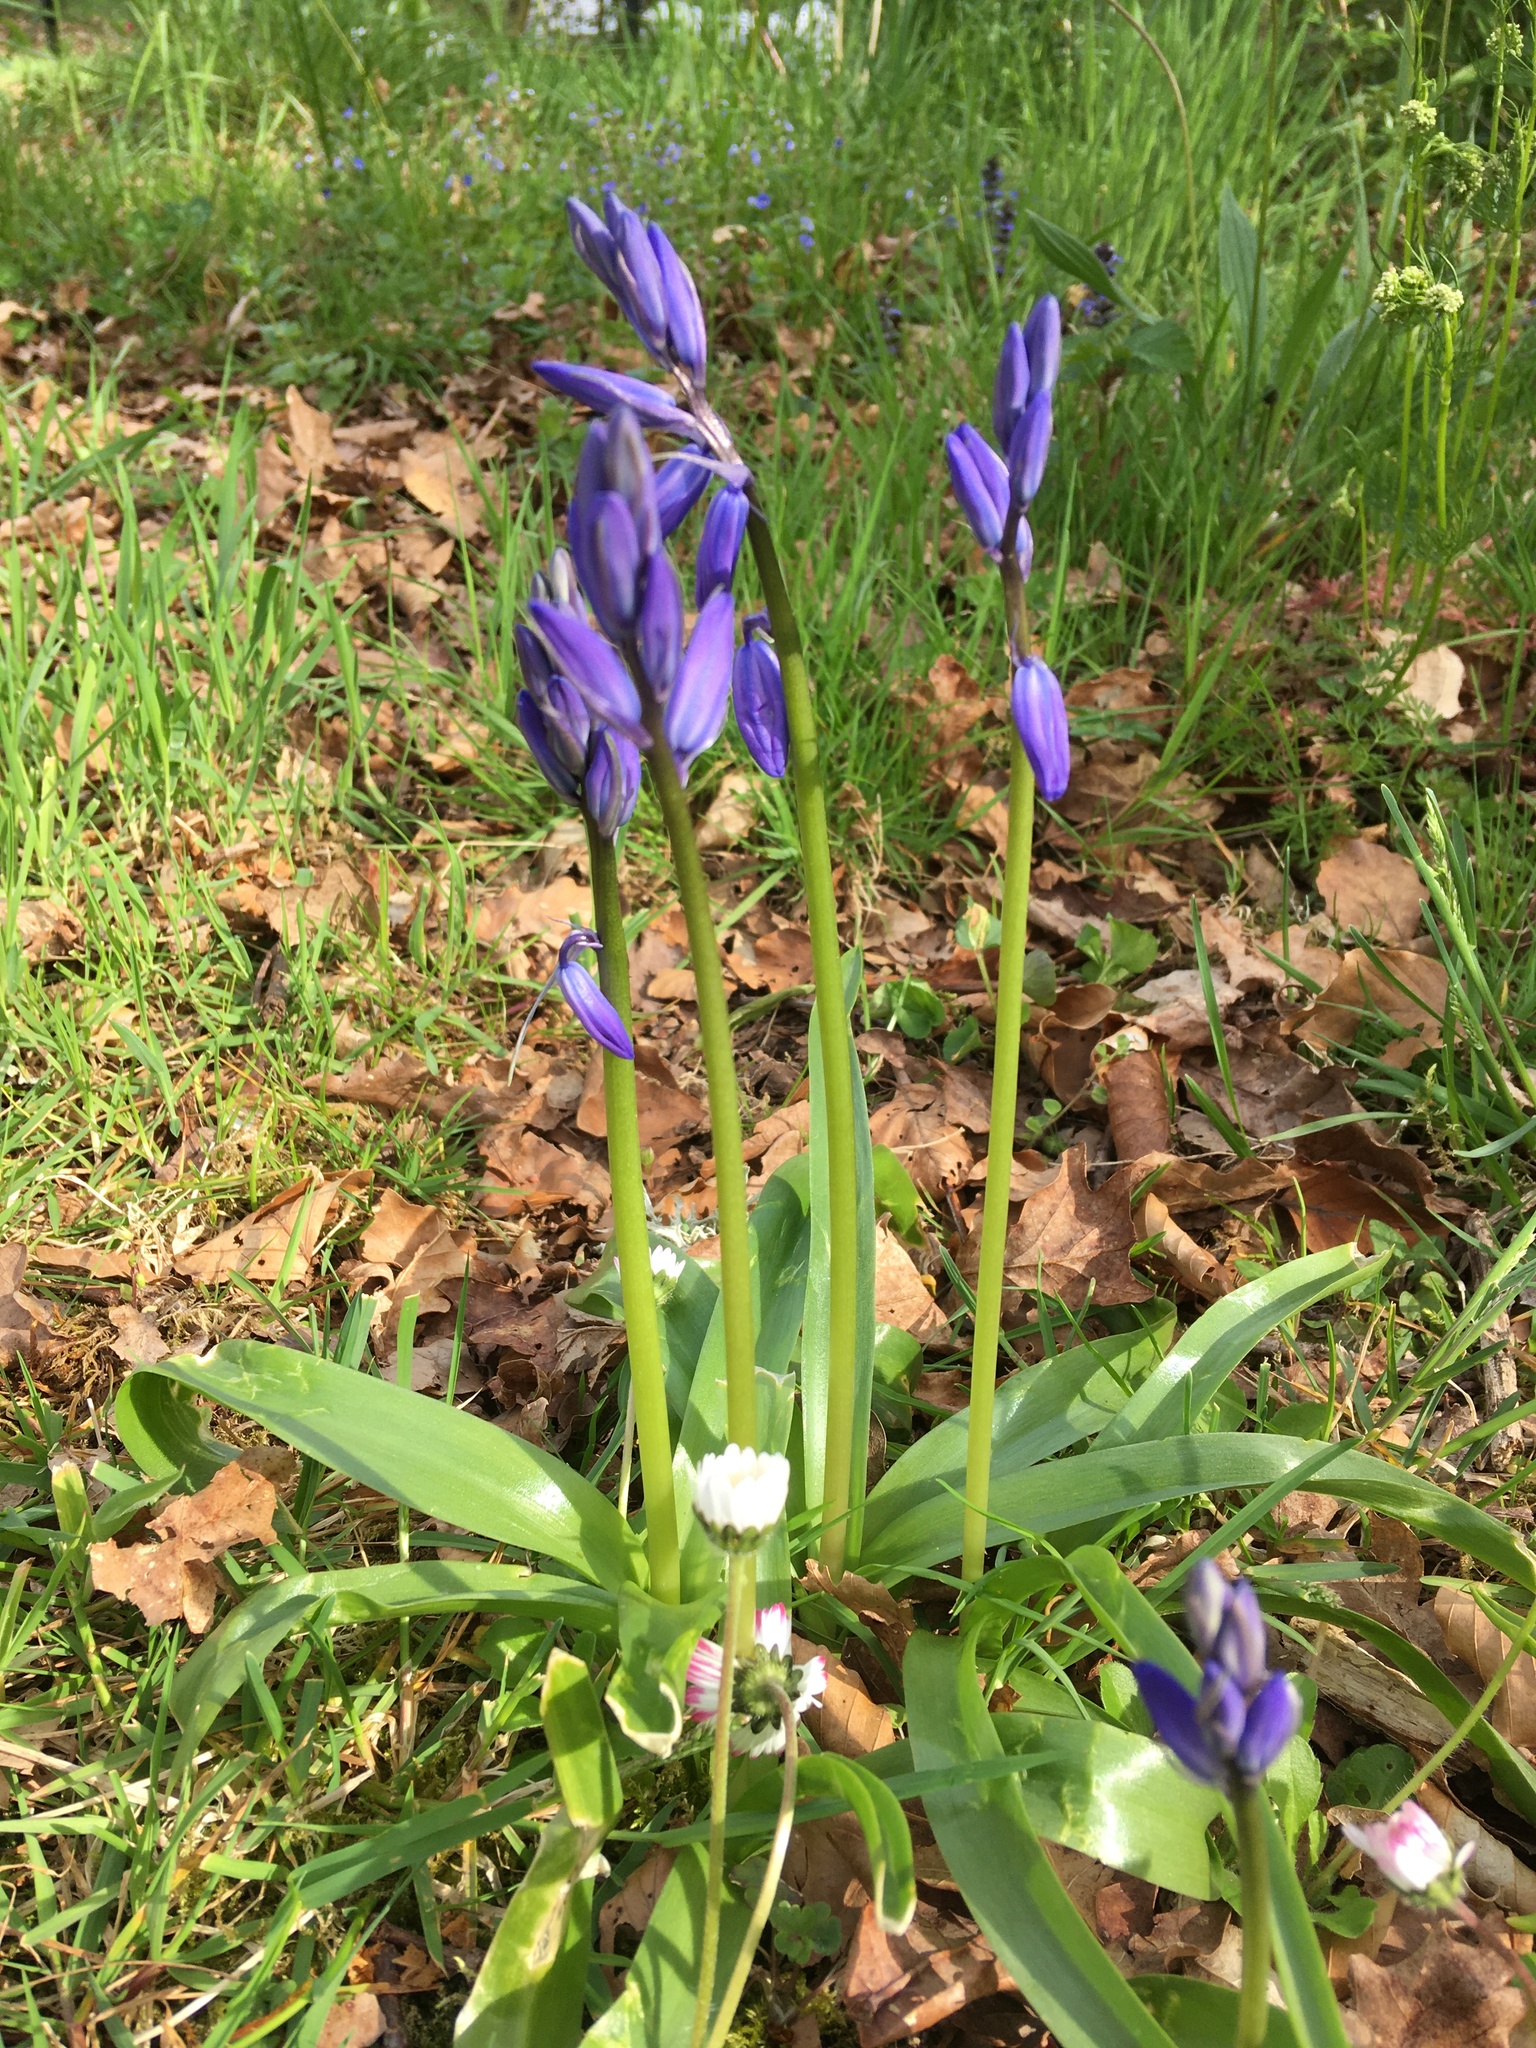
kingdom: Plantae
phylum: Tracheophyta
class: Liliopsida
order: Asparagales
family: Asparagaceae
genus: Hyacinthoides
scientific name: Hyacinthoides non-scripta
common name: Bluebell
